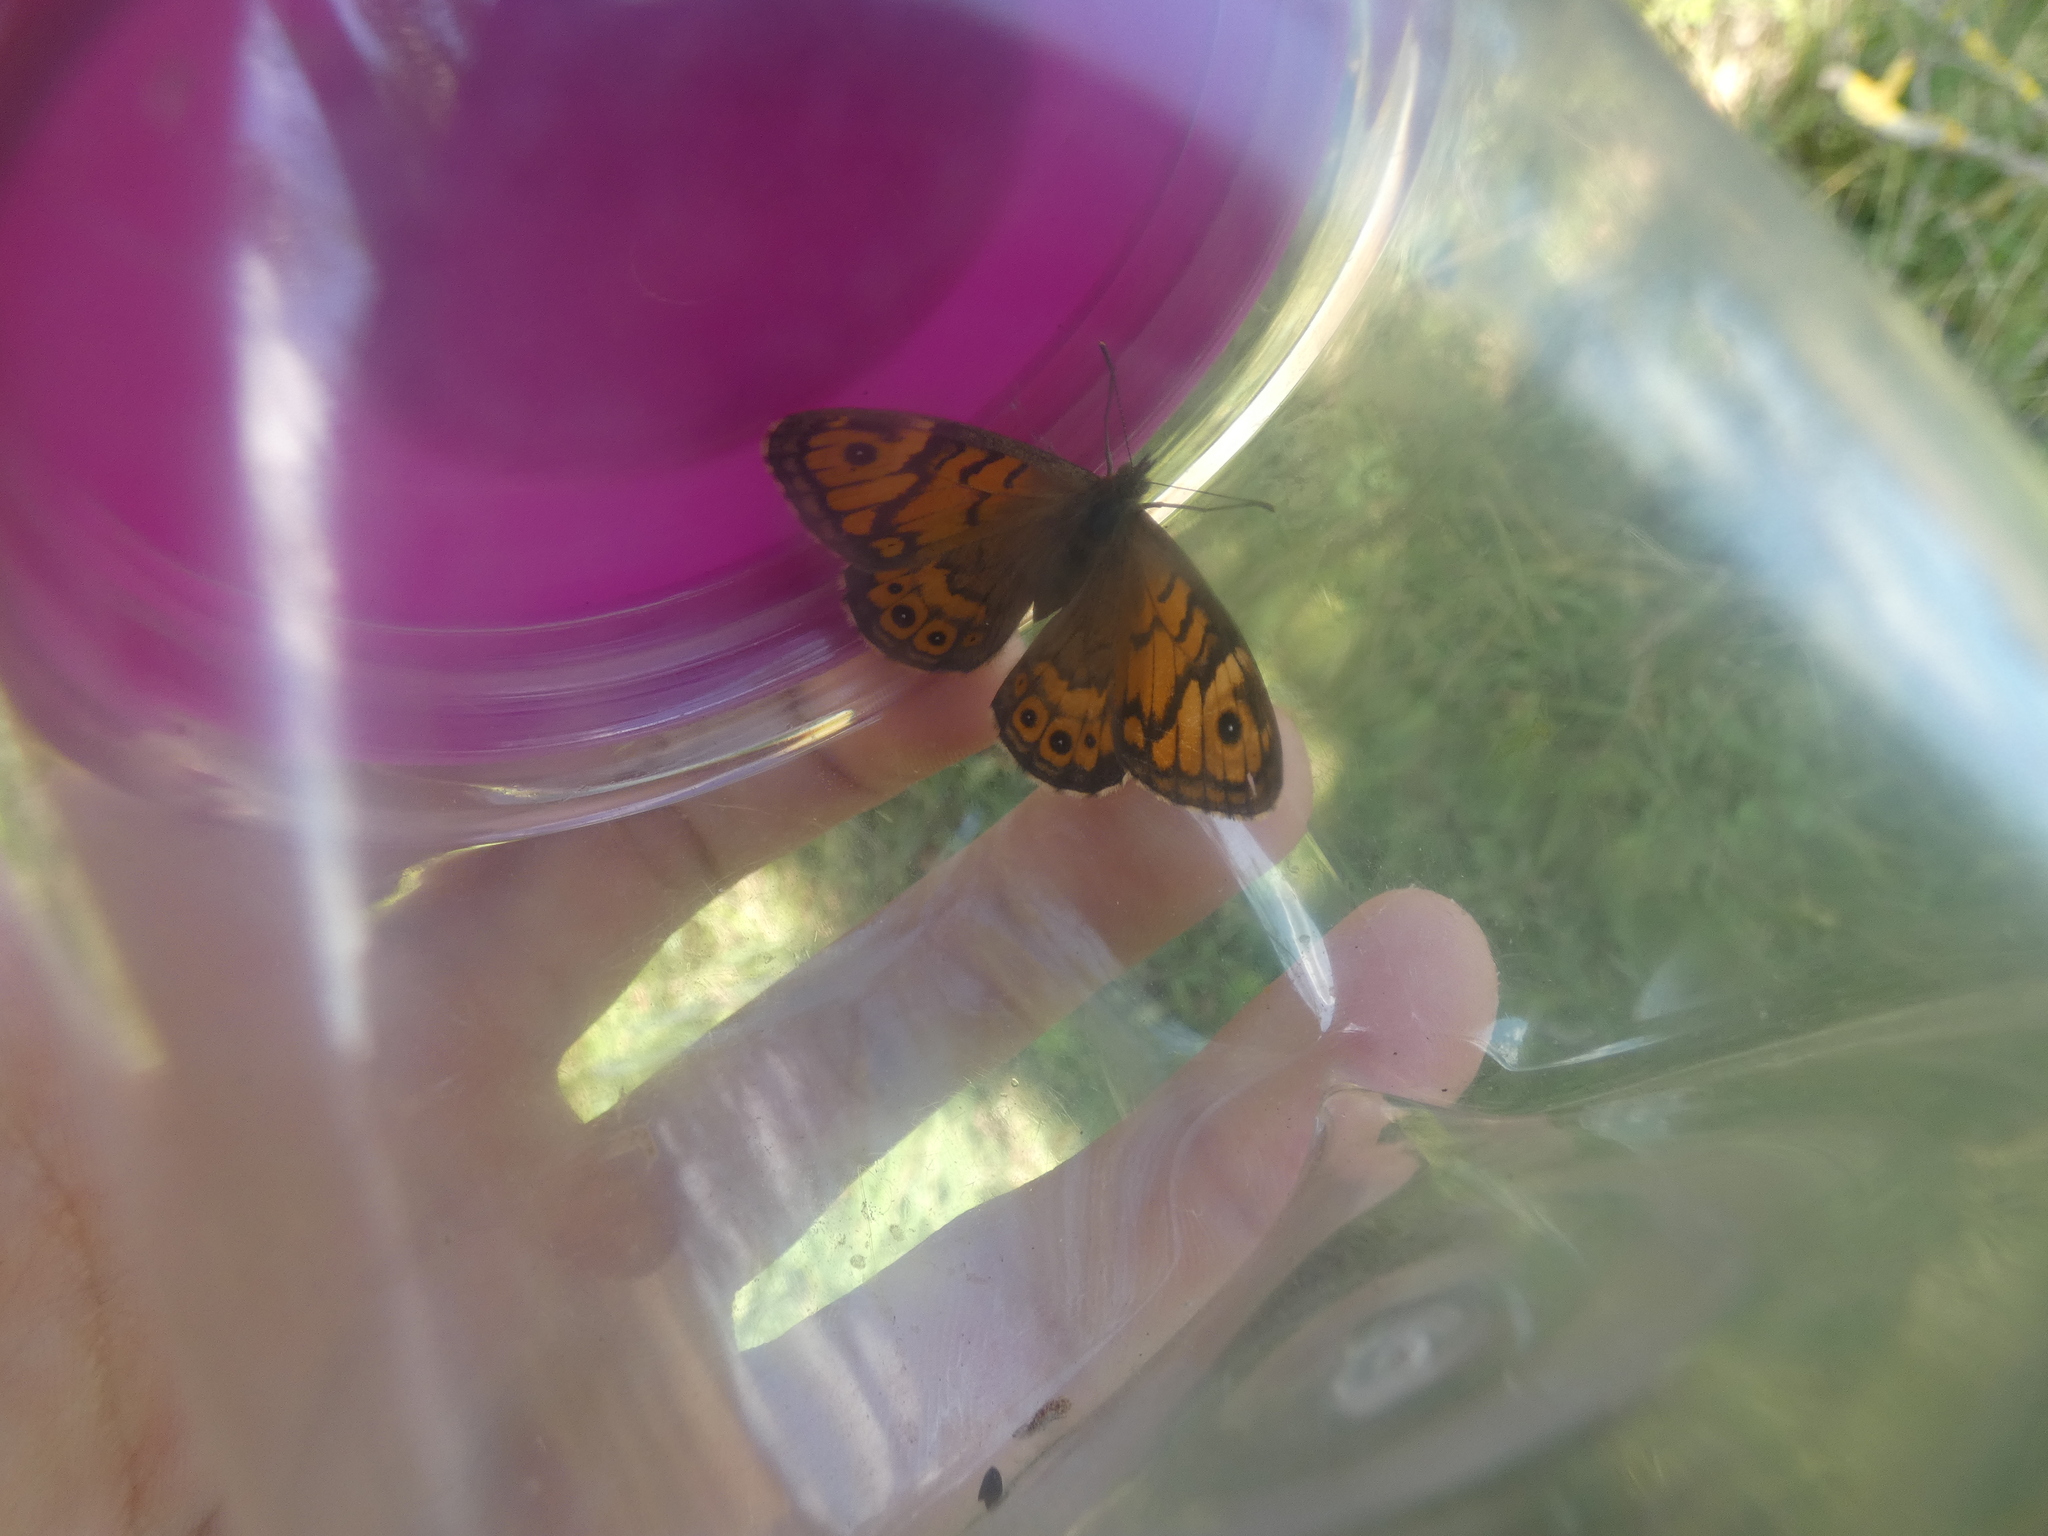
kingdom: Animalia
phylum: Arthropoda
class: Insecta
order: Lepidoptera
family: Nymphalidae
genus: Pararge
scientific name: Pararge Lasiommata megera
